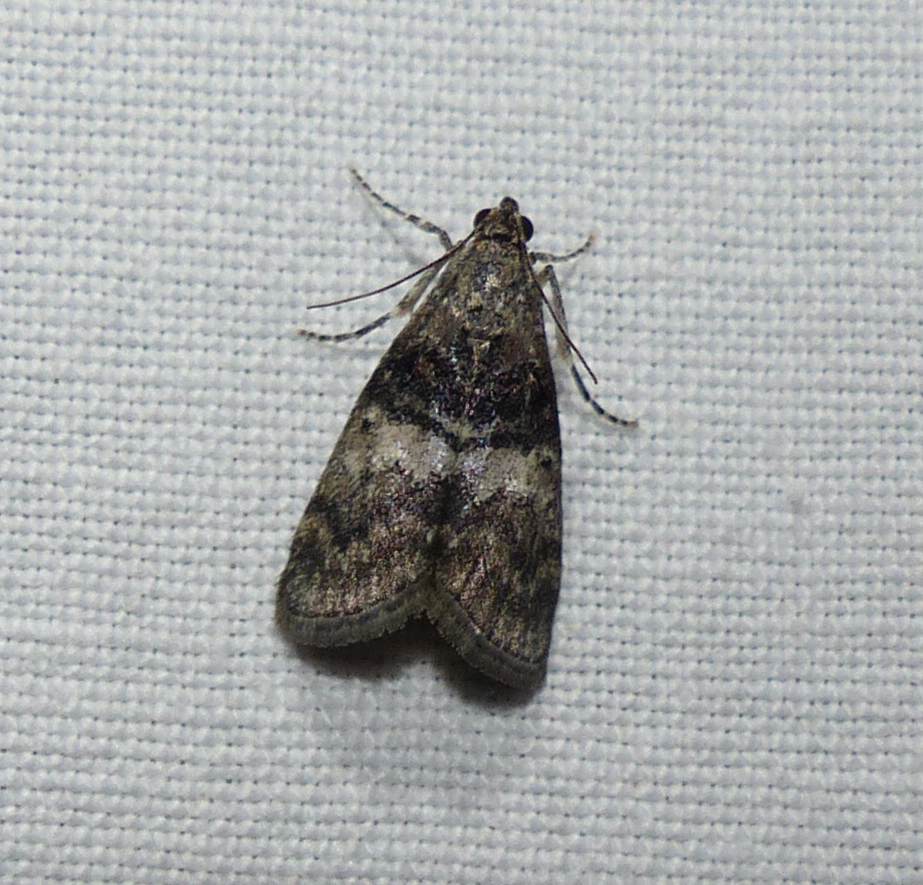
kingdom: Animalia
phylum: Arthropoda
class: Insecta
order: Lepidoptera
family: Pyralidae
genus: Pococera
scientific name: Pococera asperatella
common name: Maple webworm moth
